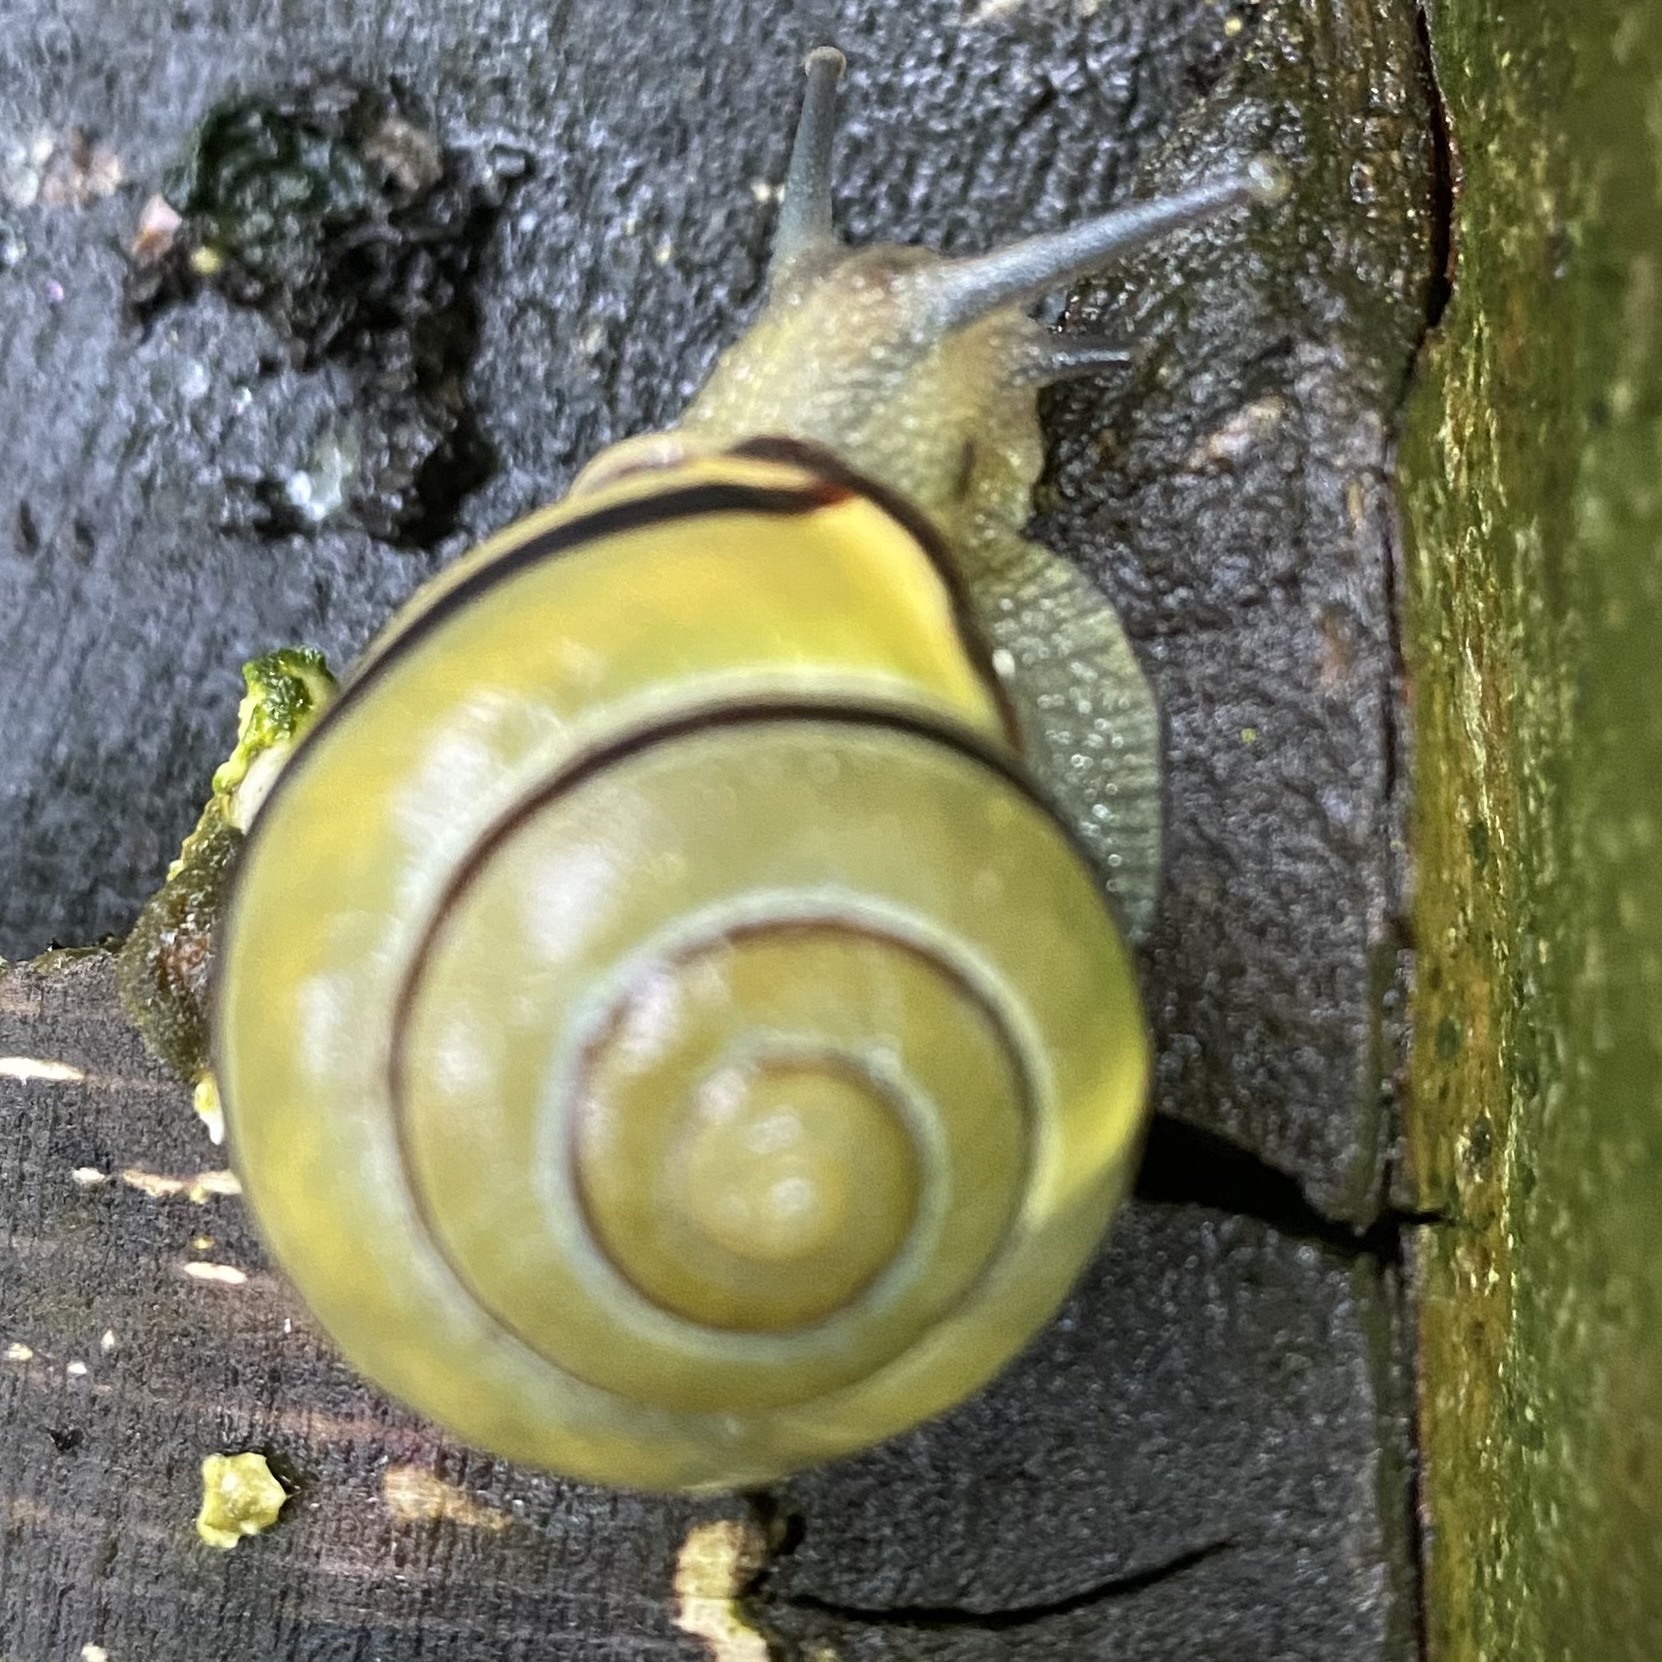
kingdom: Animalia
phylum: Mollusca
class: Gastropoda
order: Stylommatophora
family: Helicidae
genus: Cepaea
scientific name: Cepaea nemoralis
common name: Grovesnail
